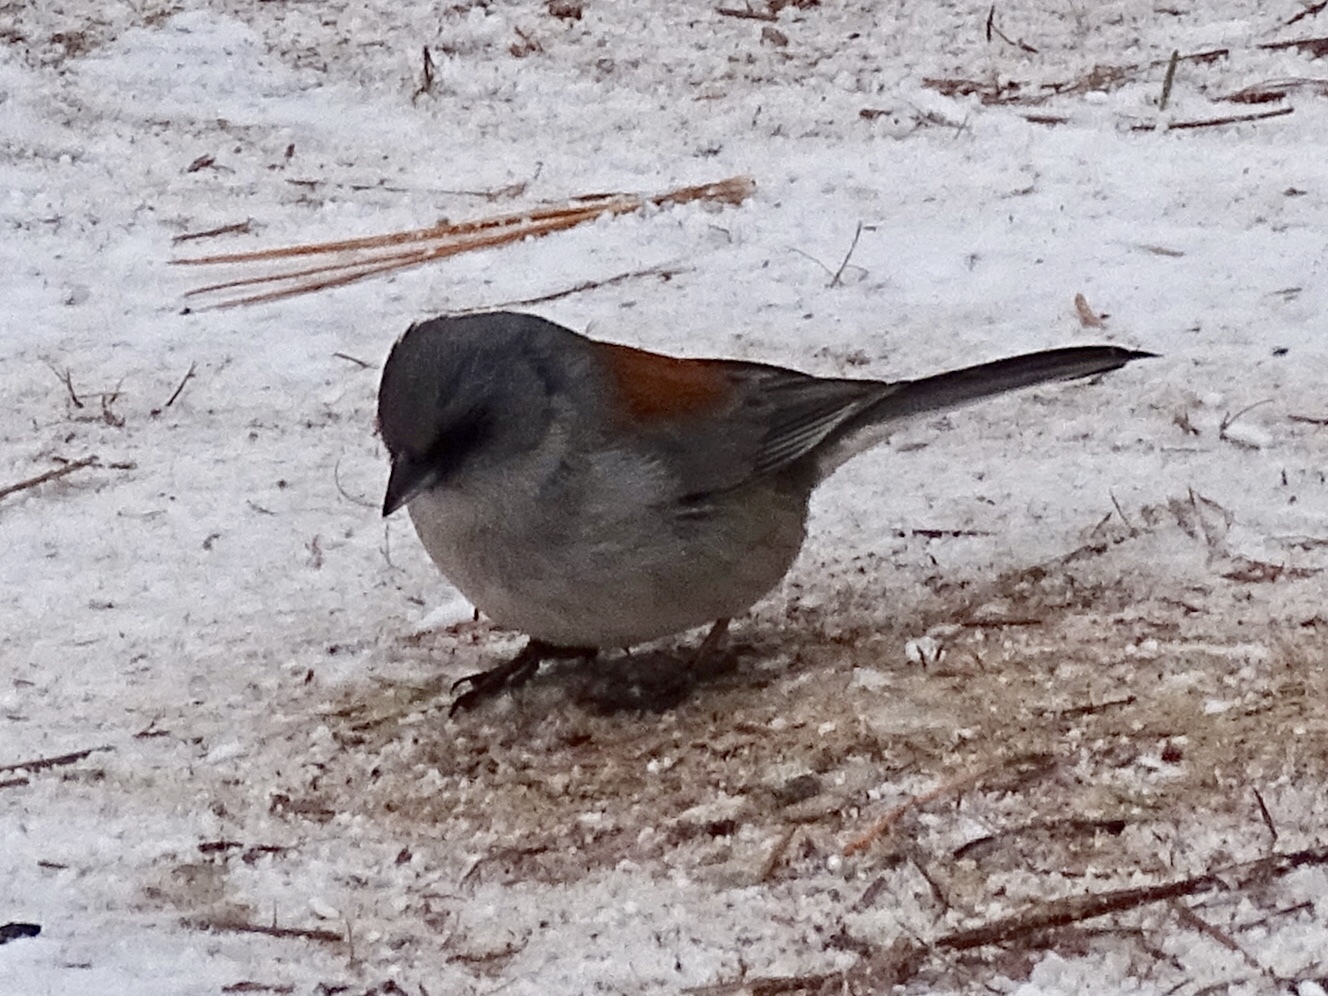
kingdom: Animalia
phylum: Chordata
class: Aves
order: Passeriformes
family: Passerellidae
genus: Junco
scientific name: Junco hyemalis
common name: Dark-eyed junco
